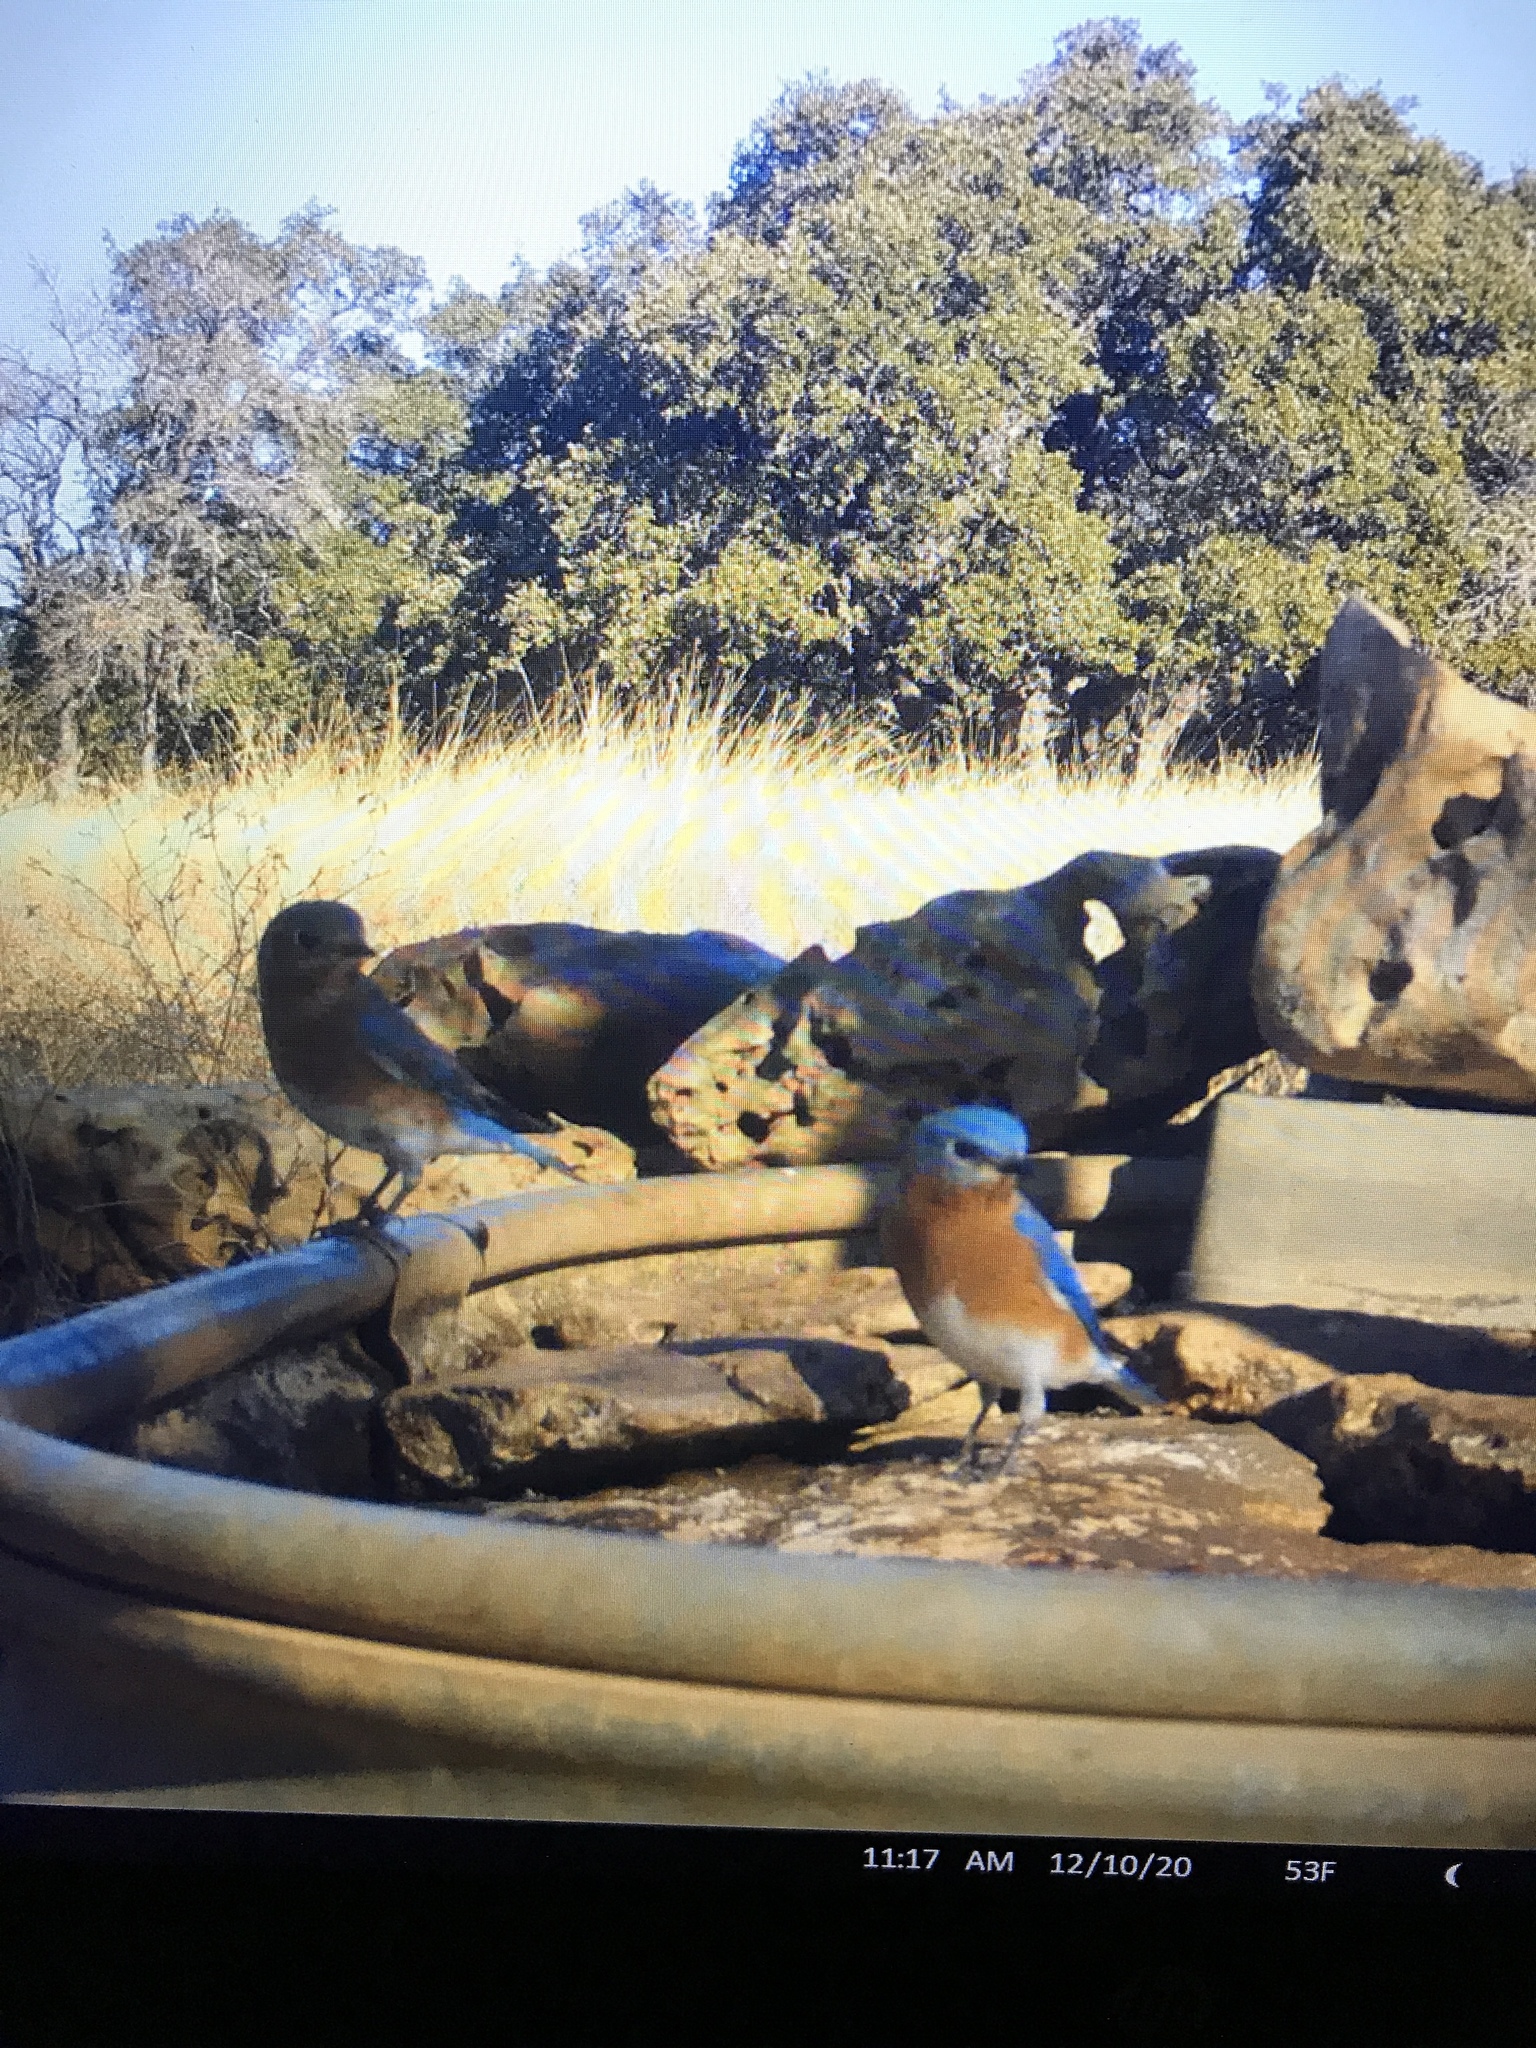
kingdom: Animalia
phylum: Chordata
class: Aves
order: Passeriformes
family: Turdidae
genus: Sialia
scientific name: Sialia sialis
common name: Eastern bluebird
